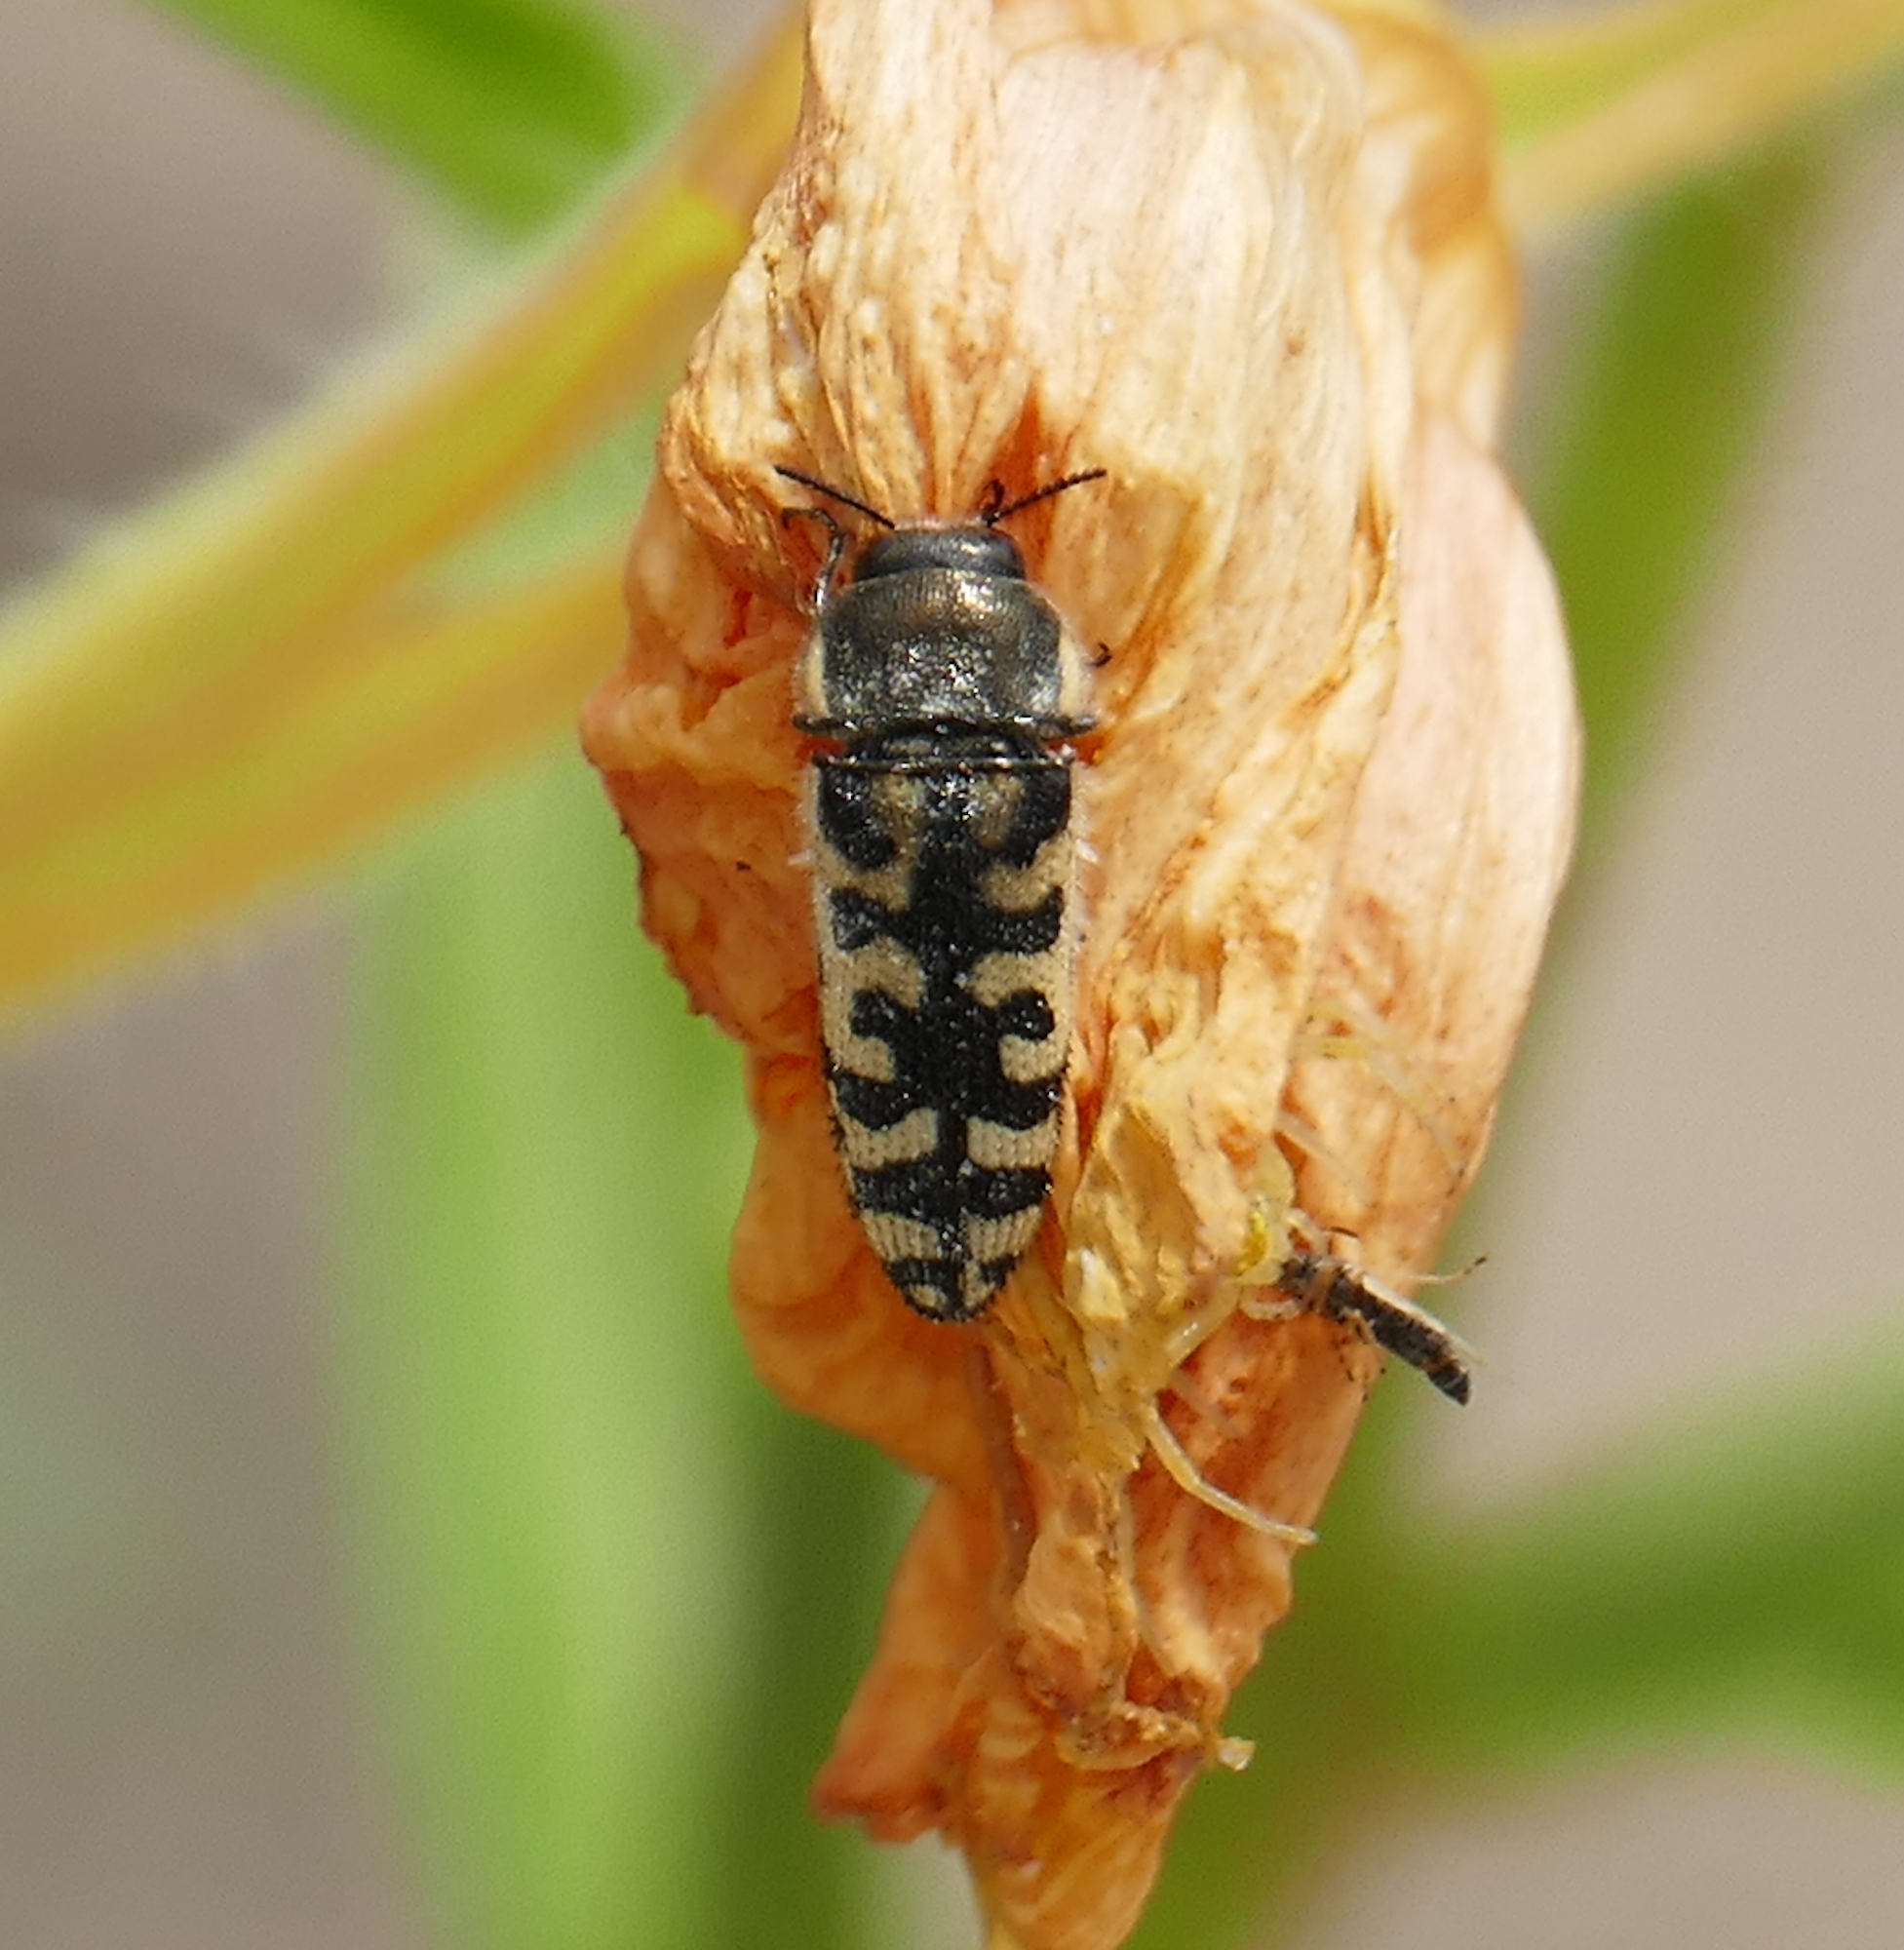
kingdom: Animalia
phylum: Arthropoda
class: Insecta
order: Coleoptera
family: Buprestidae
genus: Acmaeodera
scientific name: Acmaeodera solitaria
